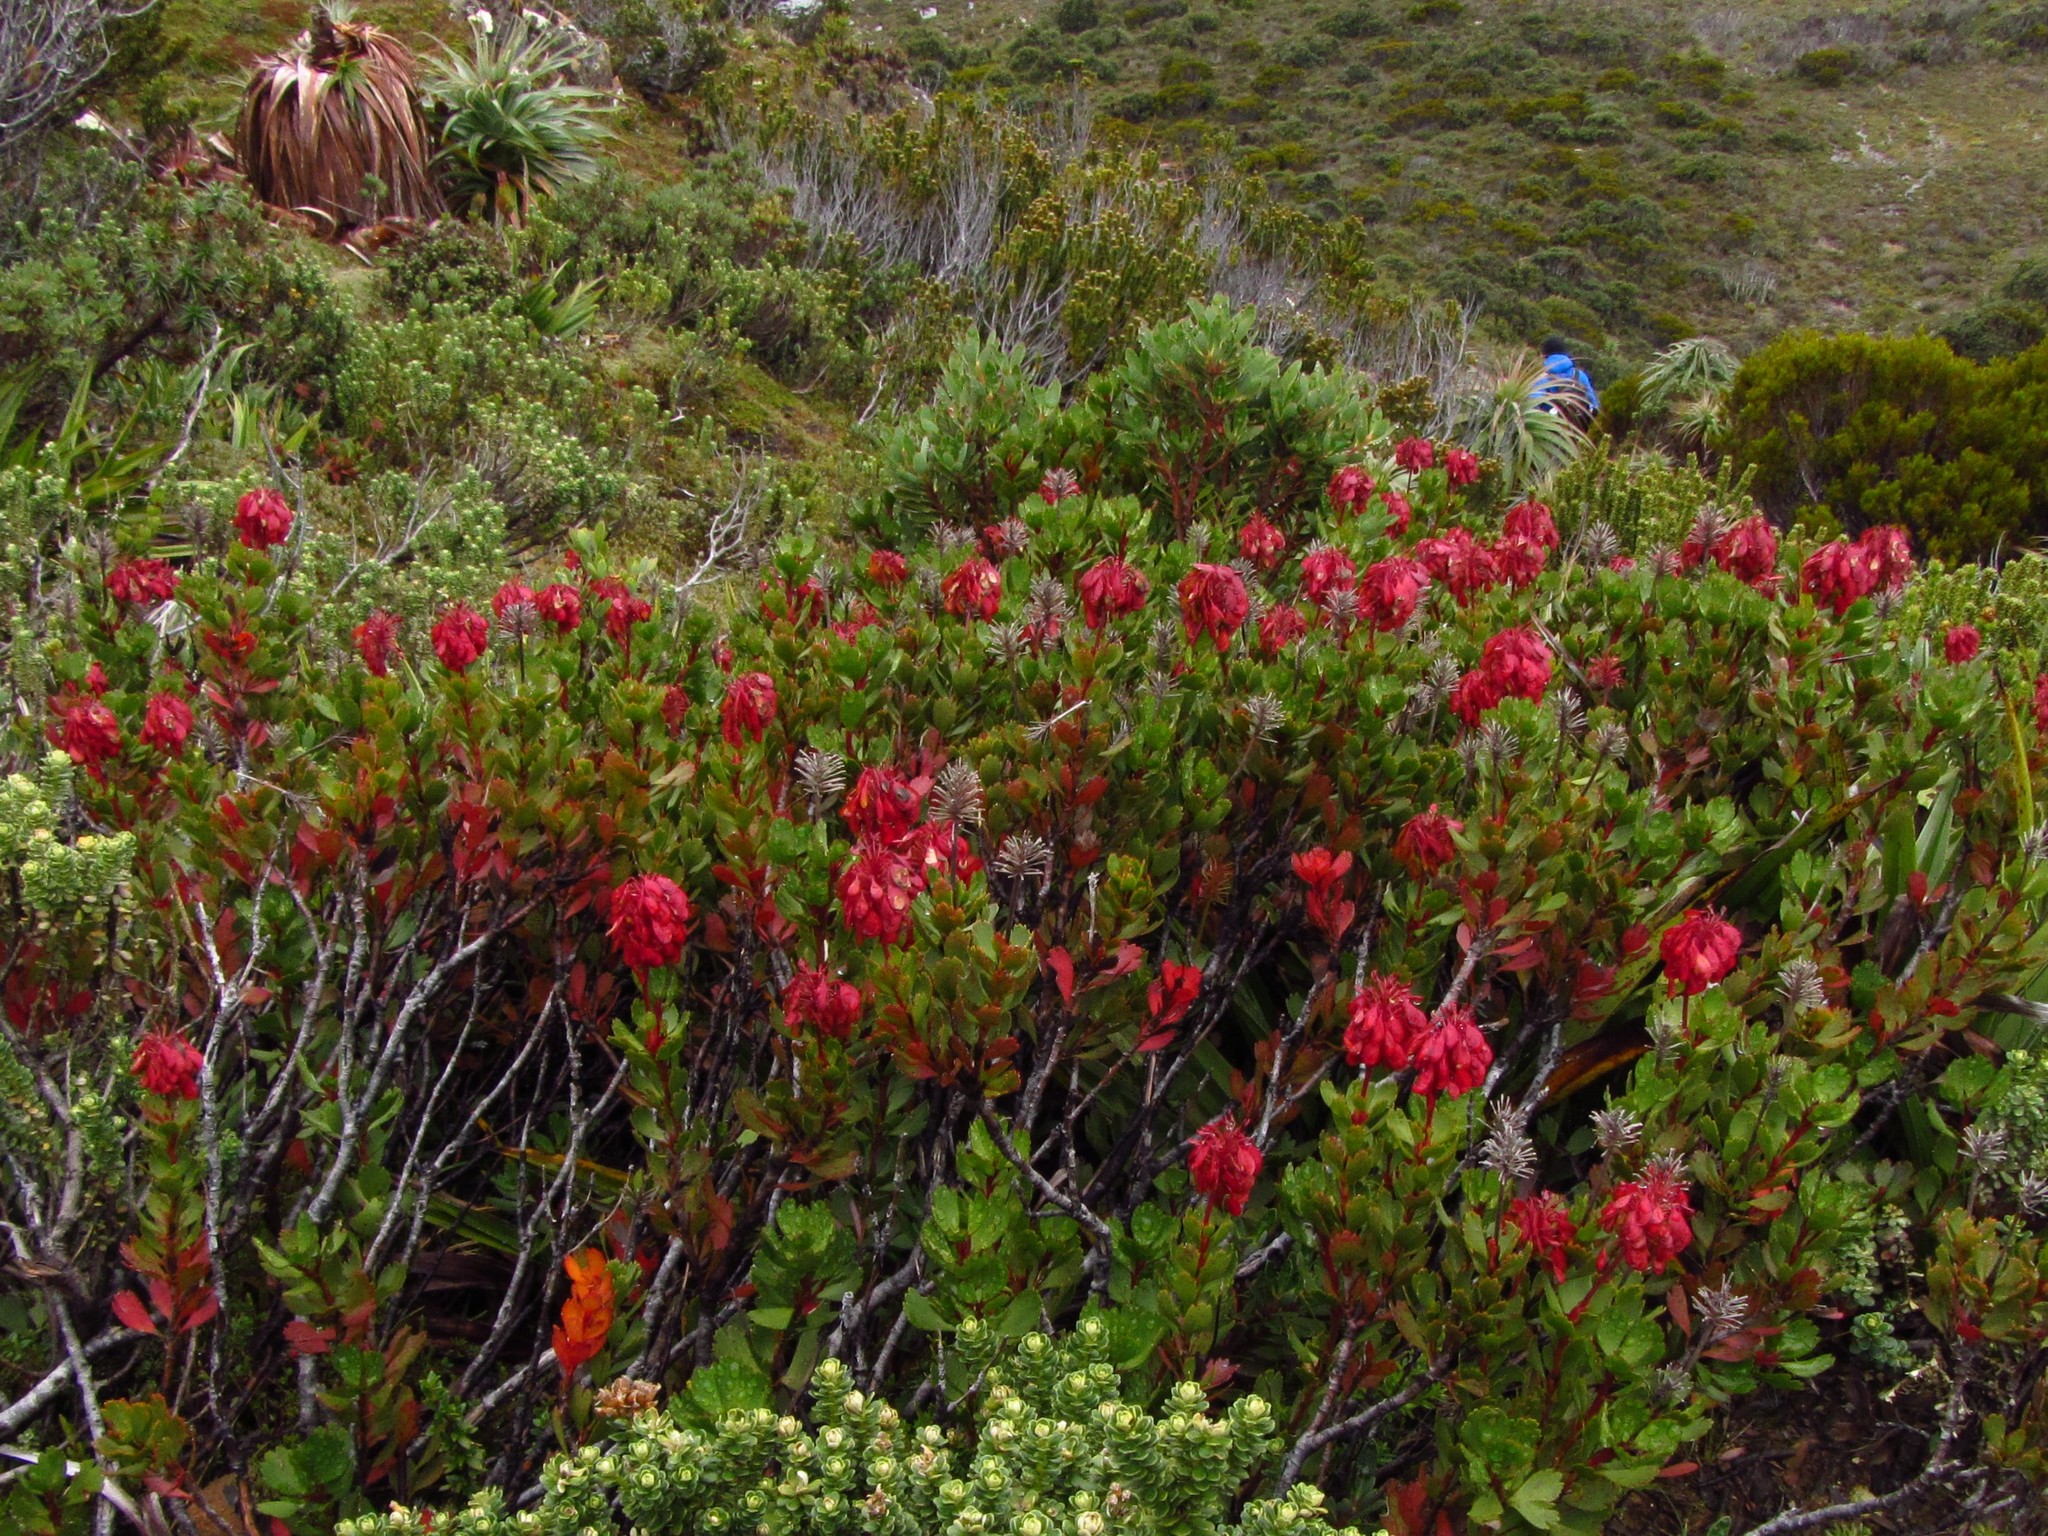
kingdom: Plantae
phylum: Tracheophyta
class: Magnoliopsida
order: Proteales
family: Proteaceae
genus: Bellendena
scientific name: Bellendena montana
